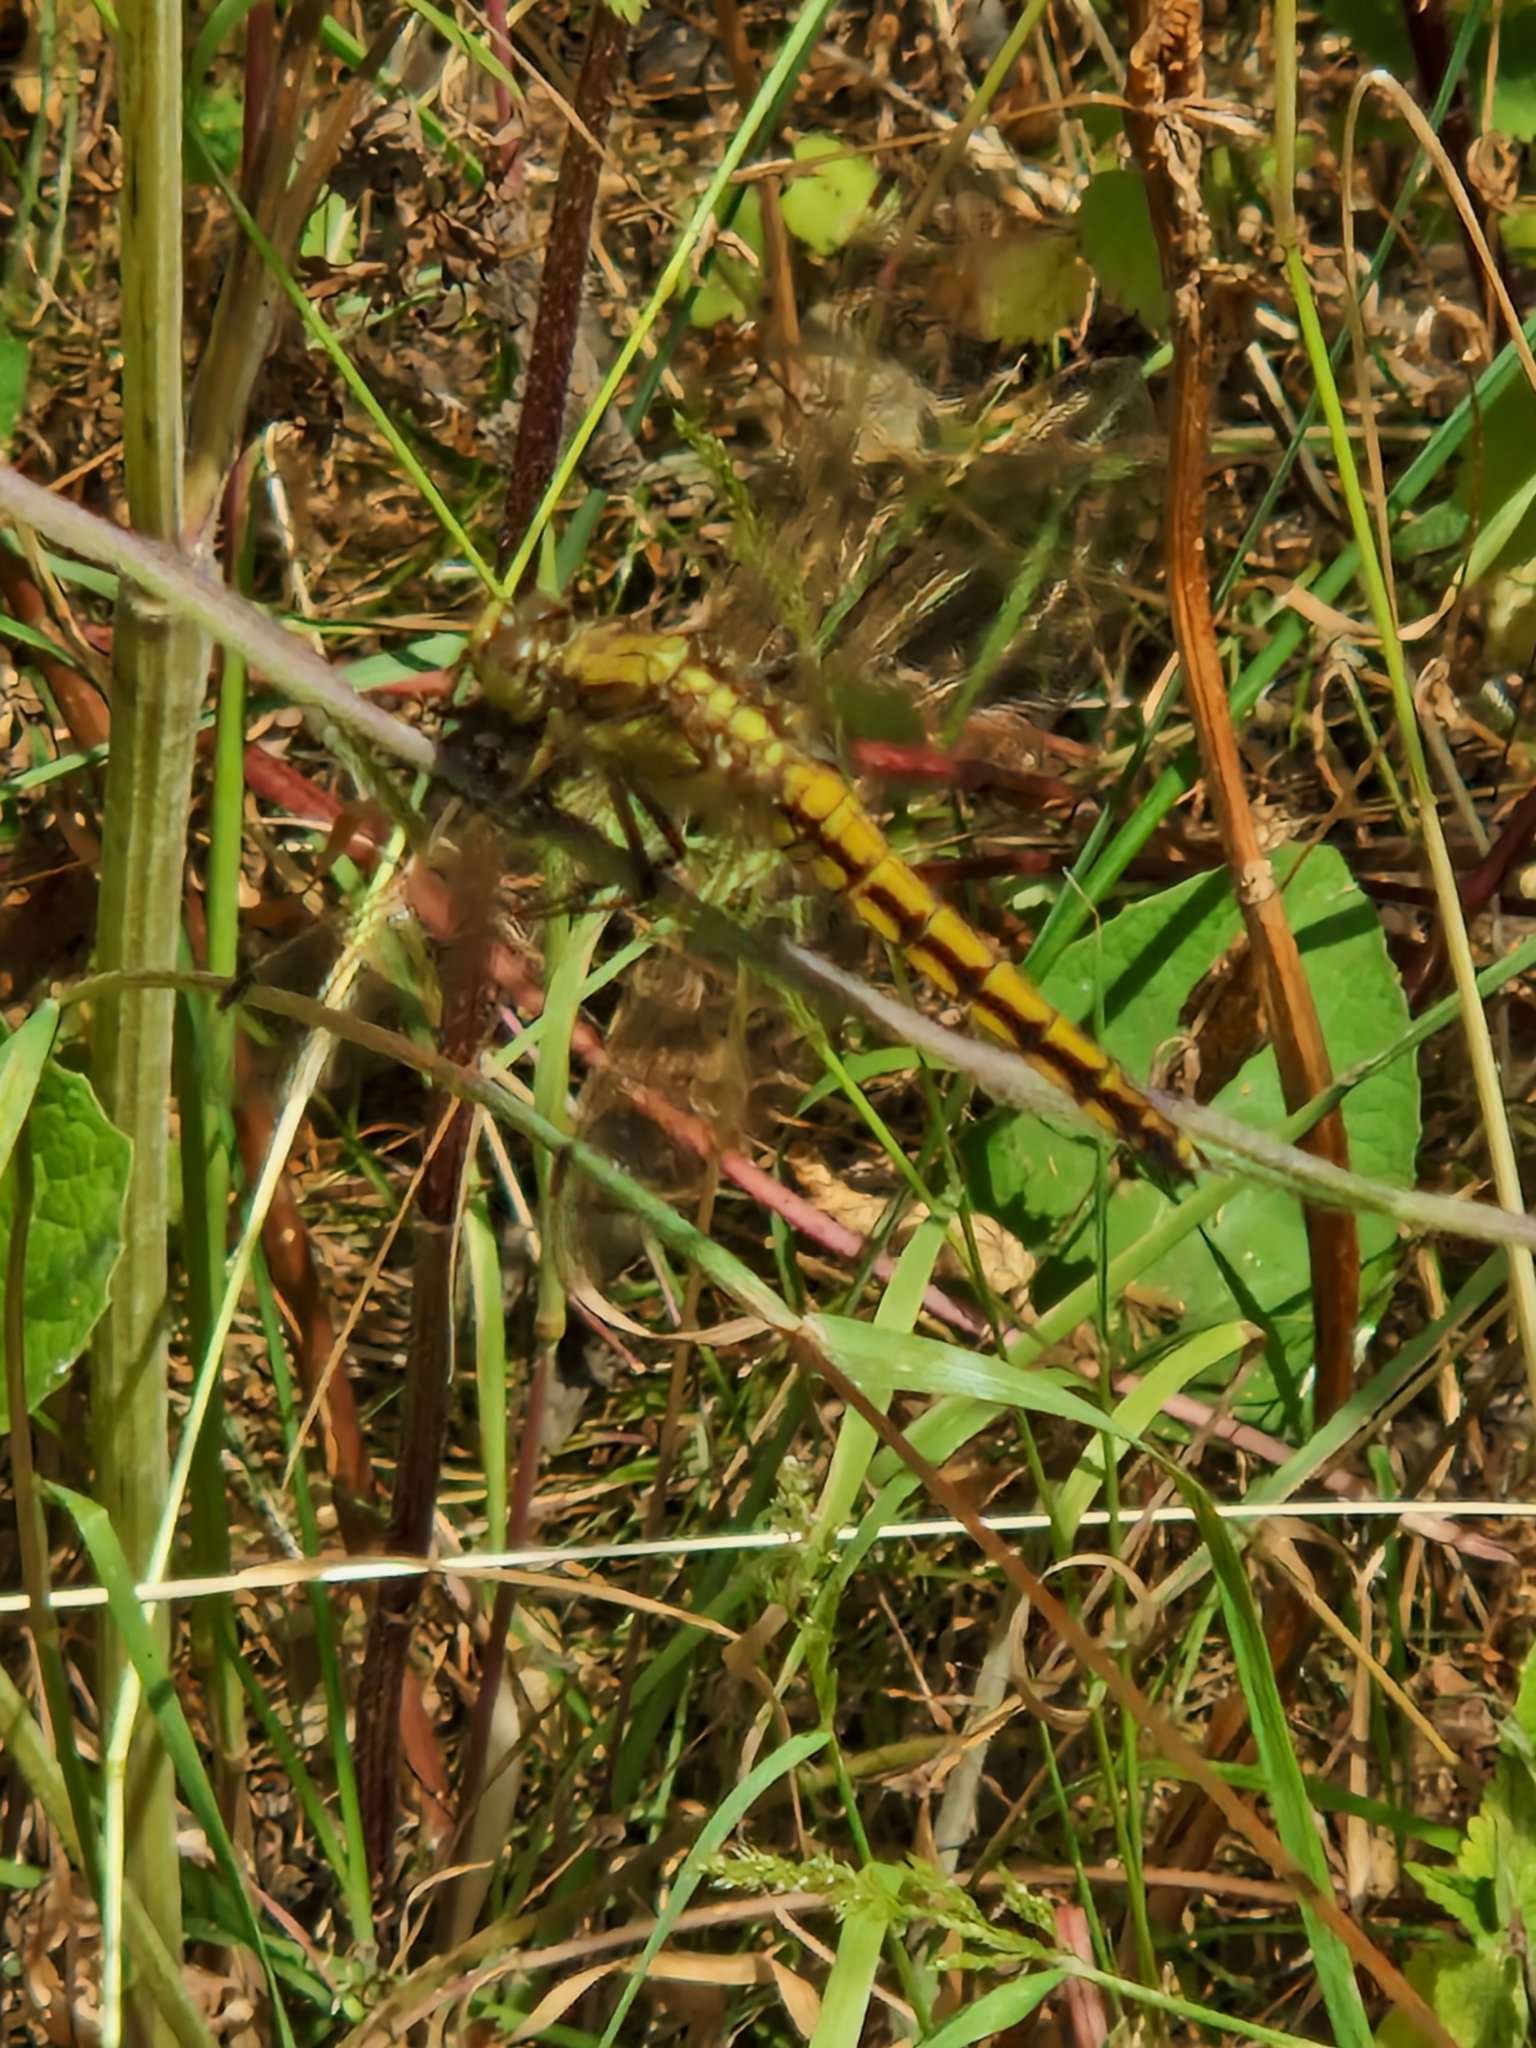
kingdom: Animalia
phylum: Arthropoda
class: Insecta
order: Odonata
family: Libellulidae
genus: Orthetrum
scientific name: Orthetrum cancellatum
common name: Black-tailed skimmer
